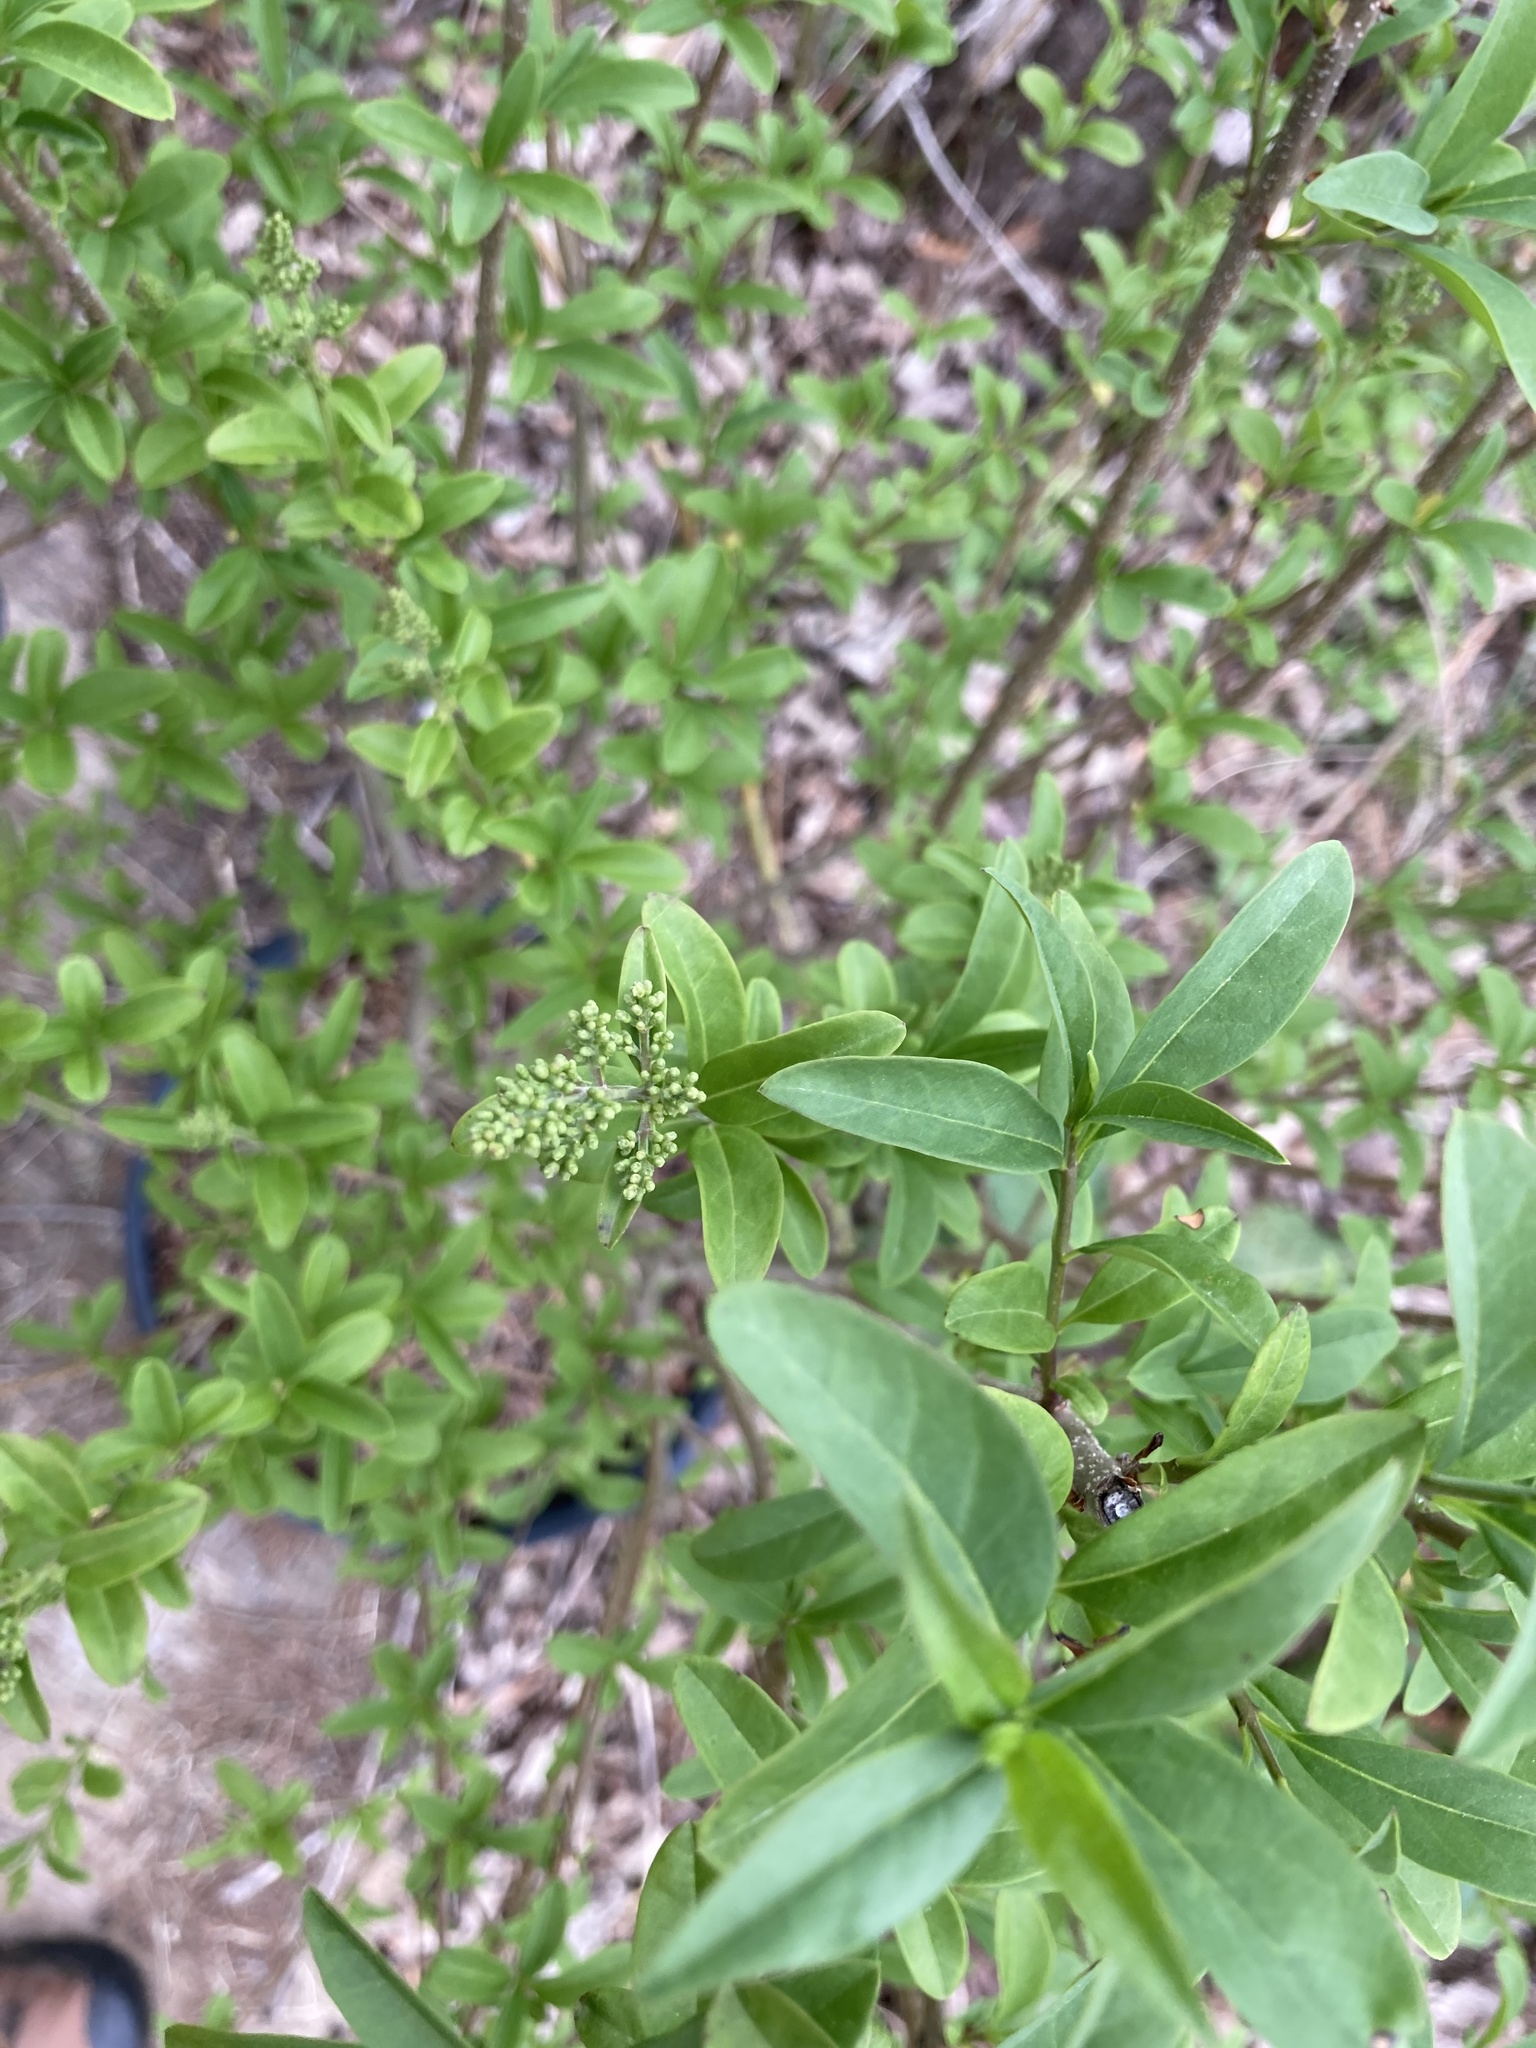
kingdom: Plantae
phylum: Tracheophyta
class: Magnoliopsida
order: Lamiales
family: Oleaceae
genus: Ligustrum
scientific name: Ligustrum vulgare
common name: Wild privet
